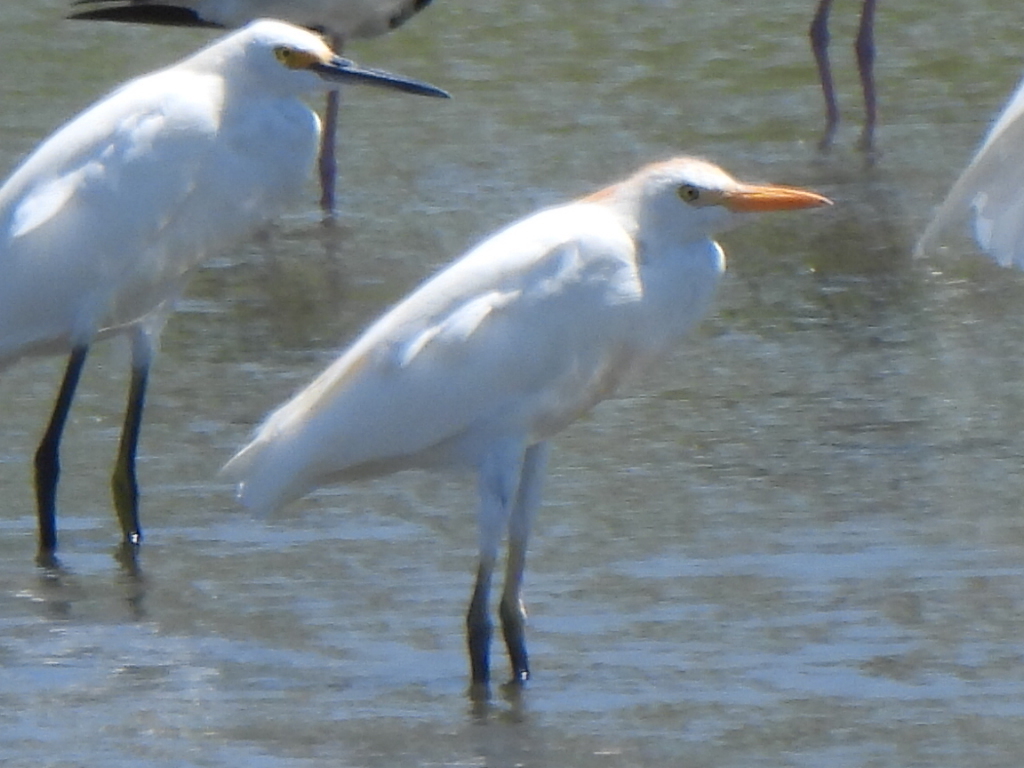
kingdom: Animalia
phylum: Chordata
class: Aves
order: Pelecaniformes
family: Ardeidae
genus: Bubulcus
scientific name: Bubulcus ibis
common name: Cattle egret
